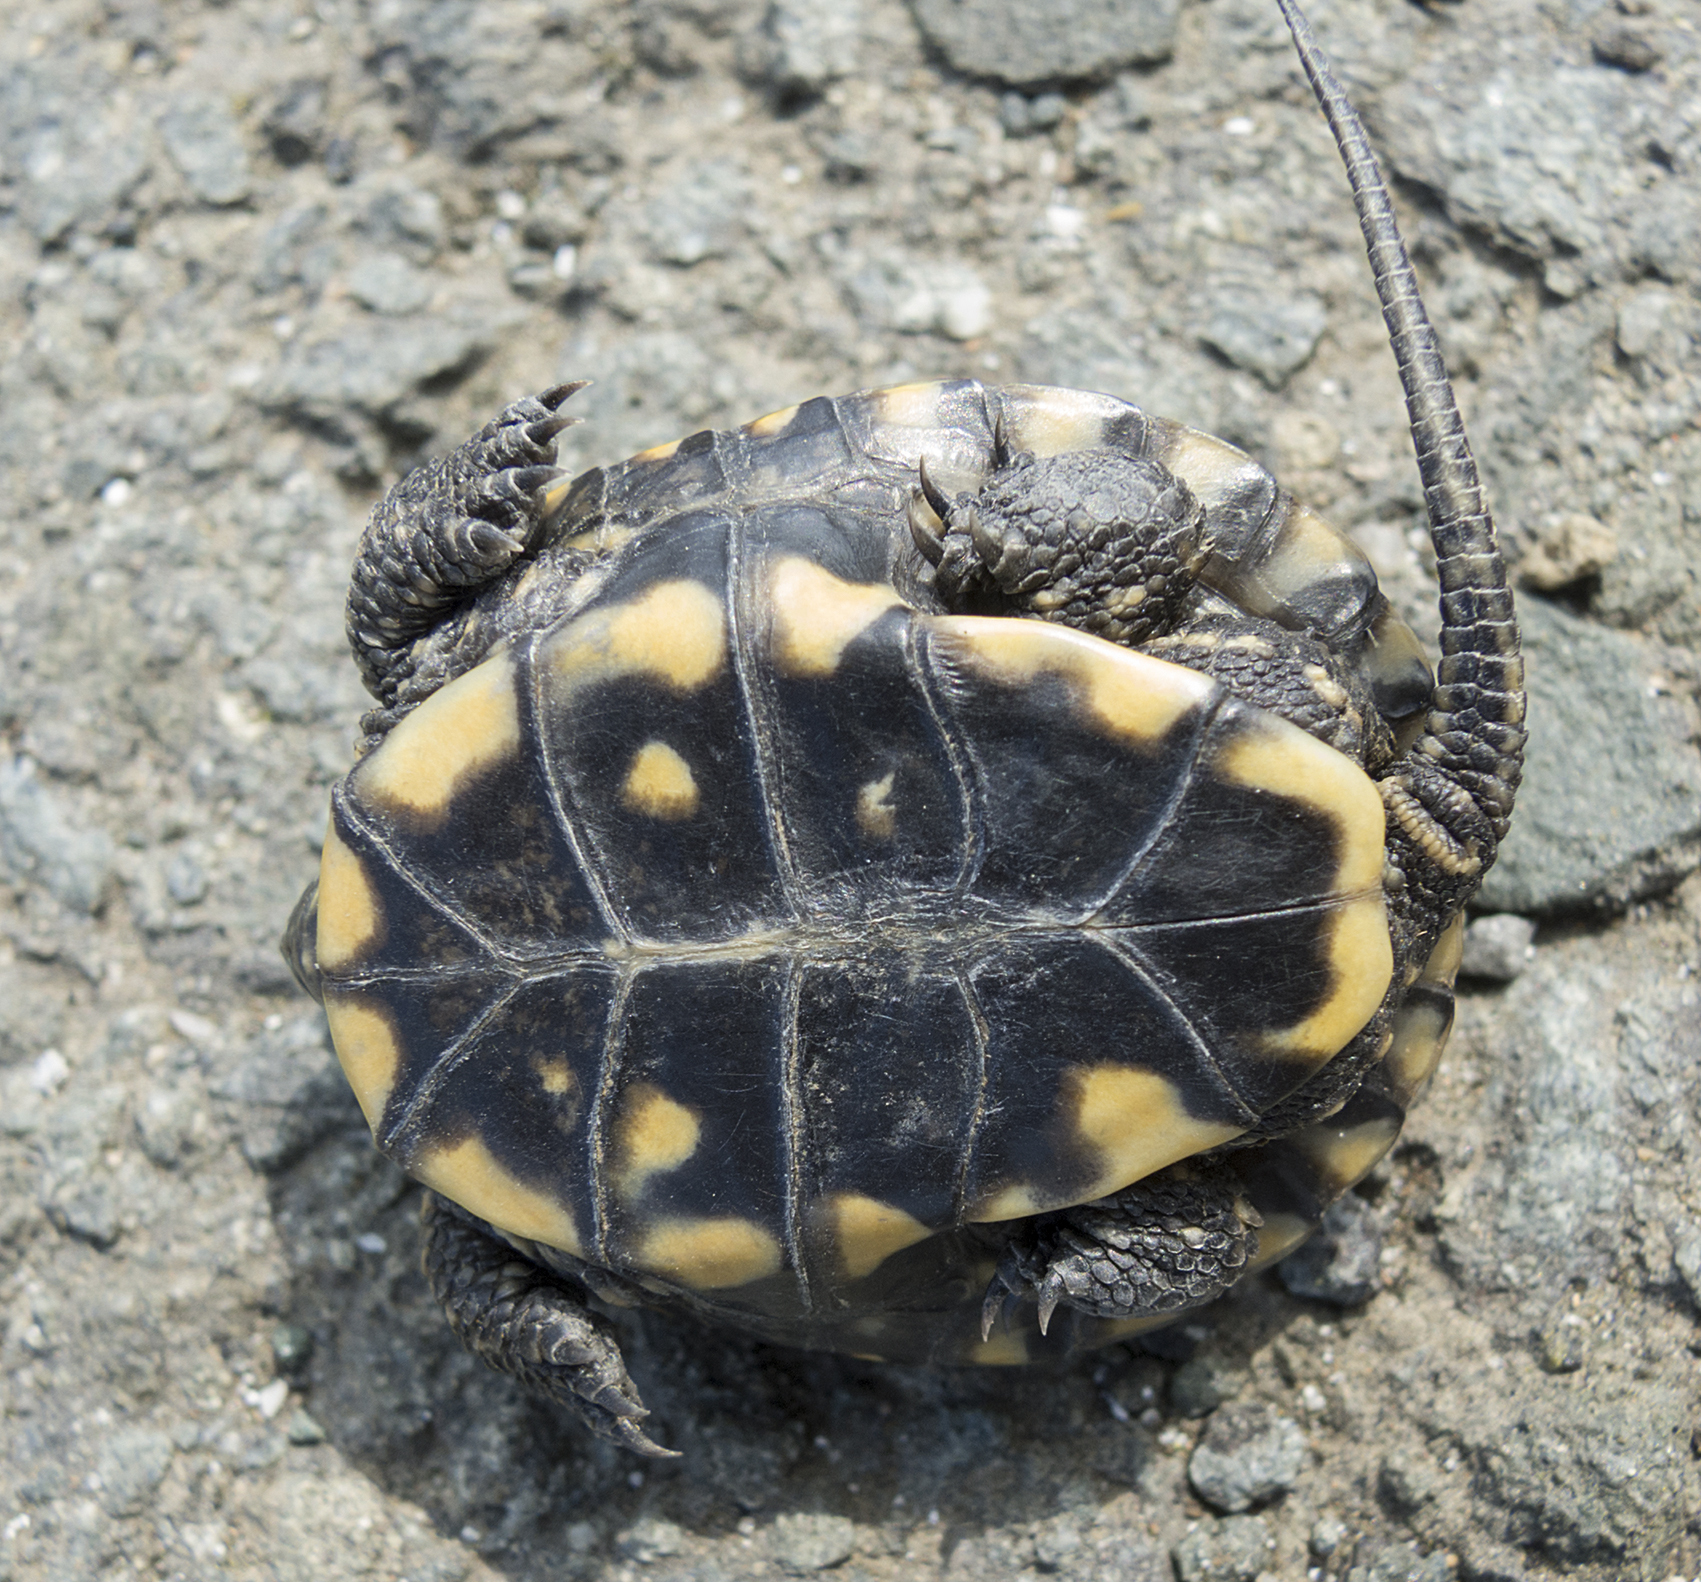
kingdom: Animalia
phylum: Chordata
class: Testudines
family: Emydidae
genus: Emys
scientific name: Emys orbicularis
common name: European pond turtle
